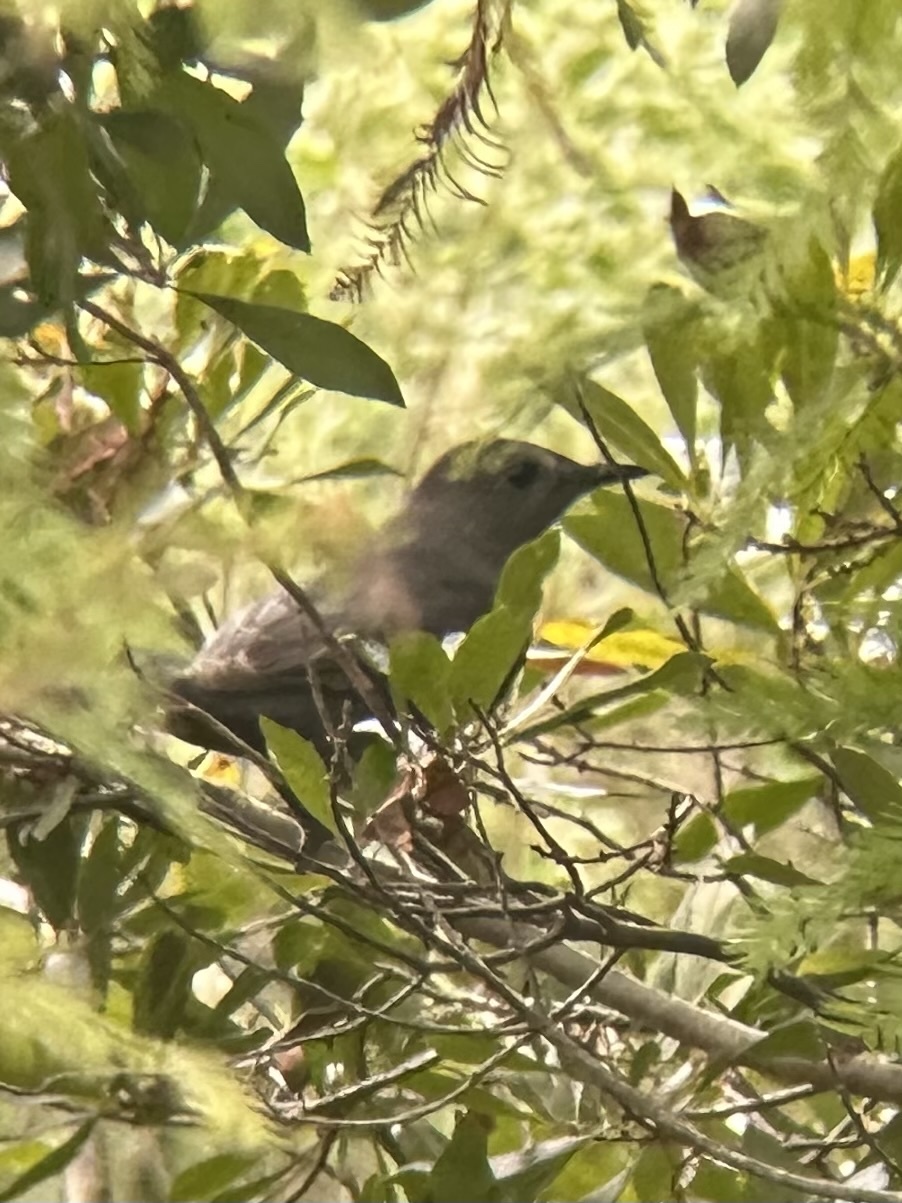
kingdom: Animalia
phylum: Chordata
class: Aves
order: Passeriformes
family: Mimidae
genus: Dumetella
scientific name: Dumetella carolinensis
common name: Gray catbird
